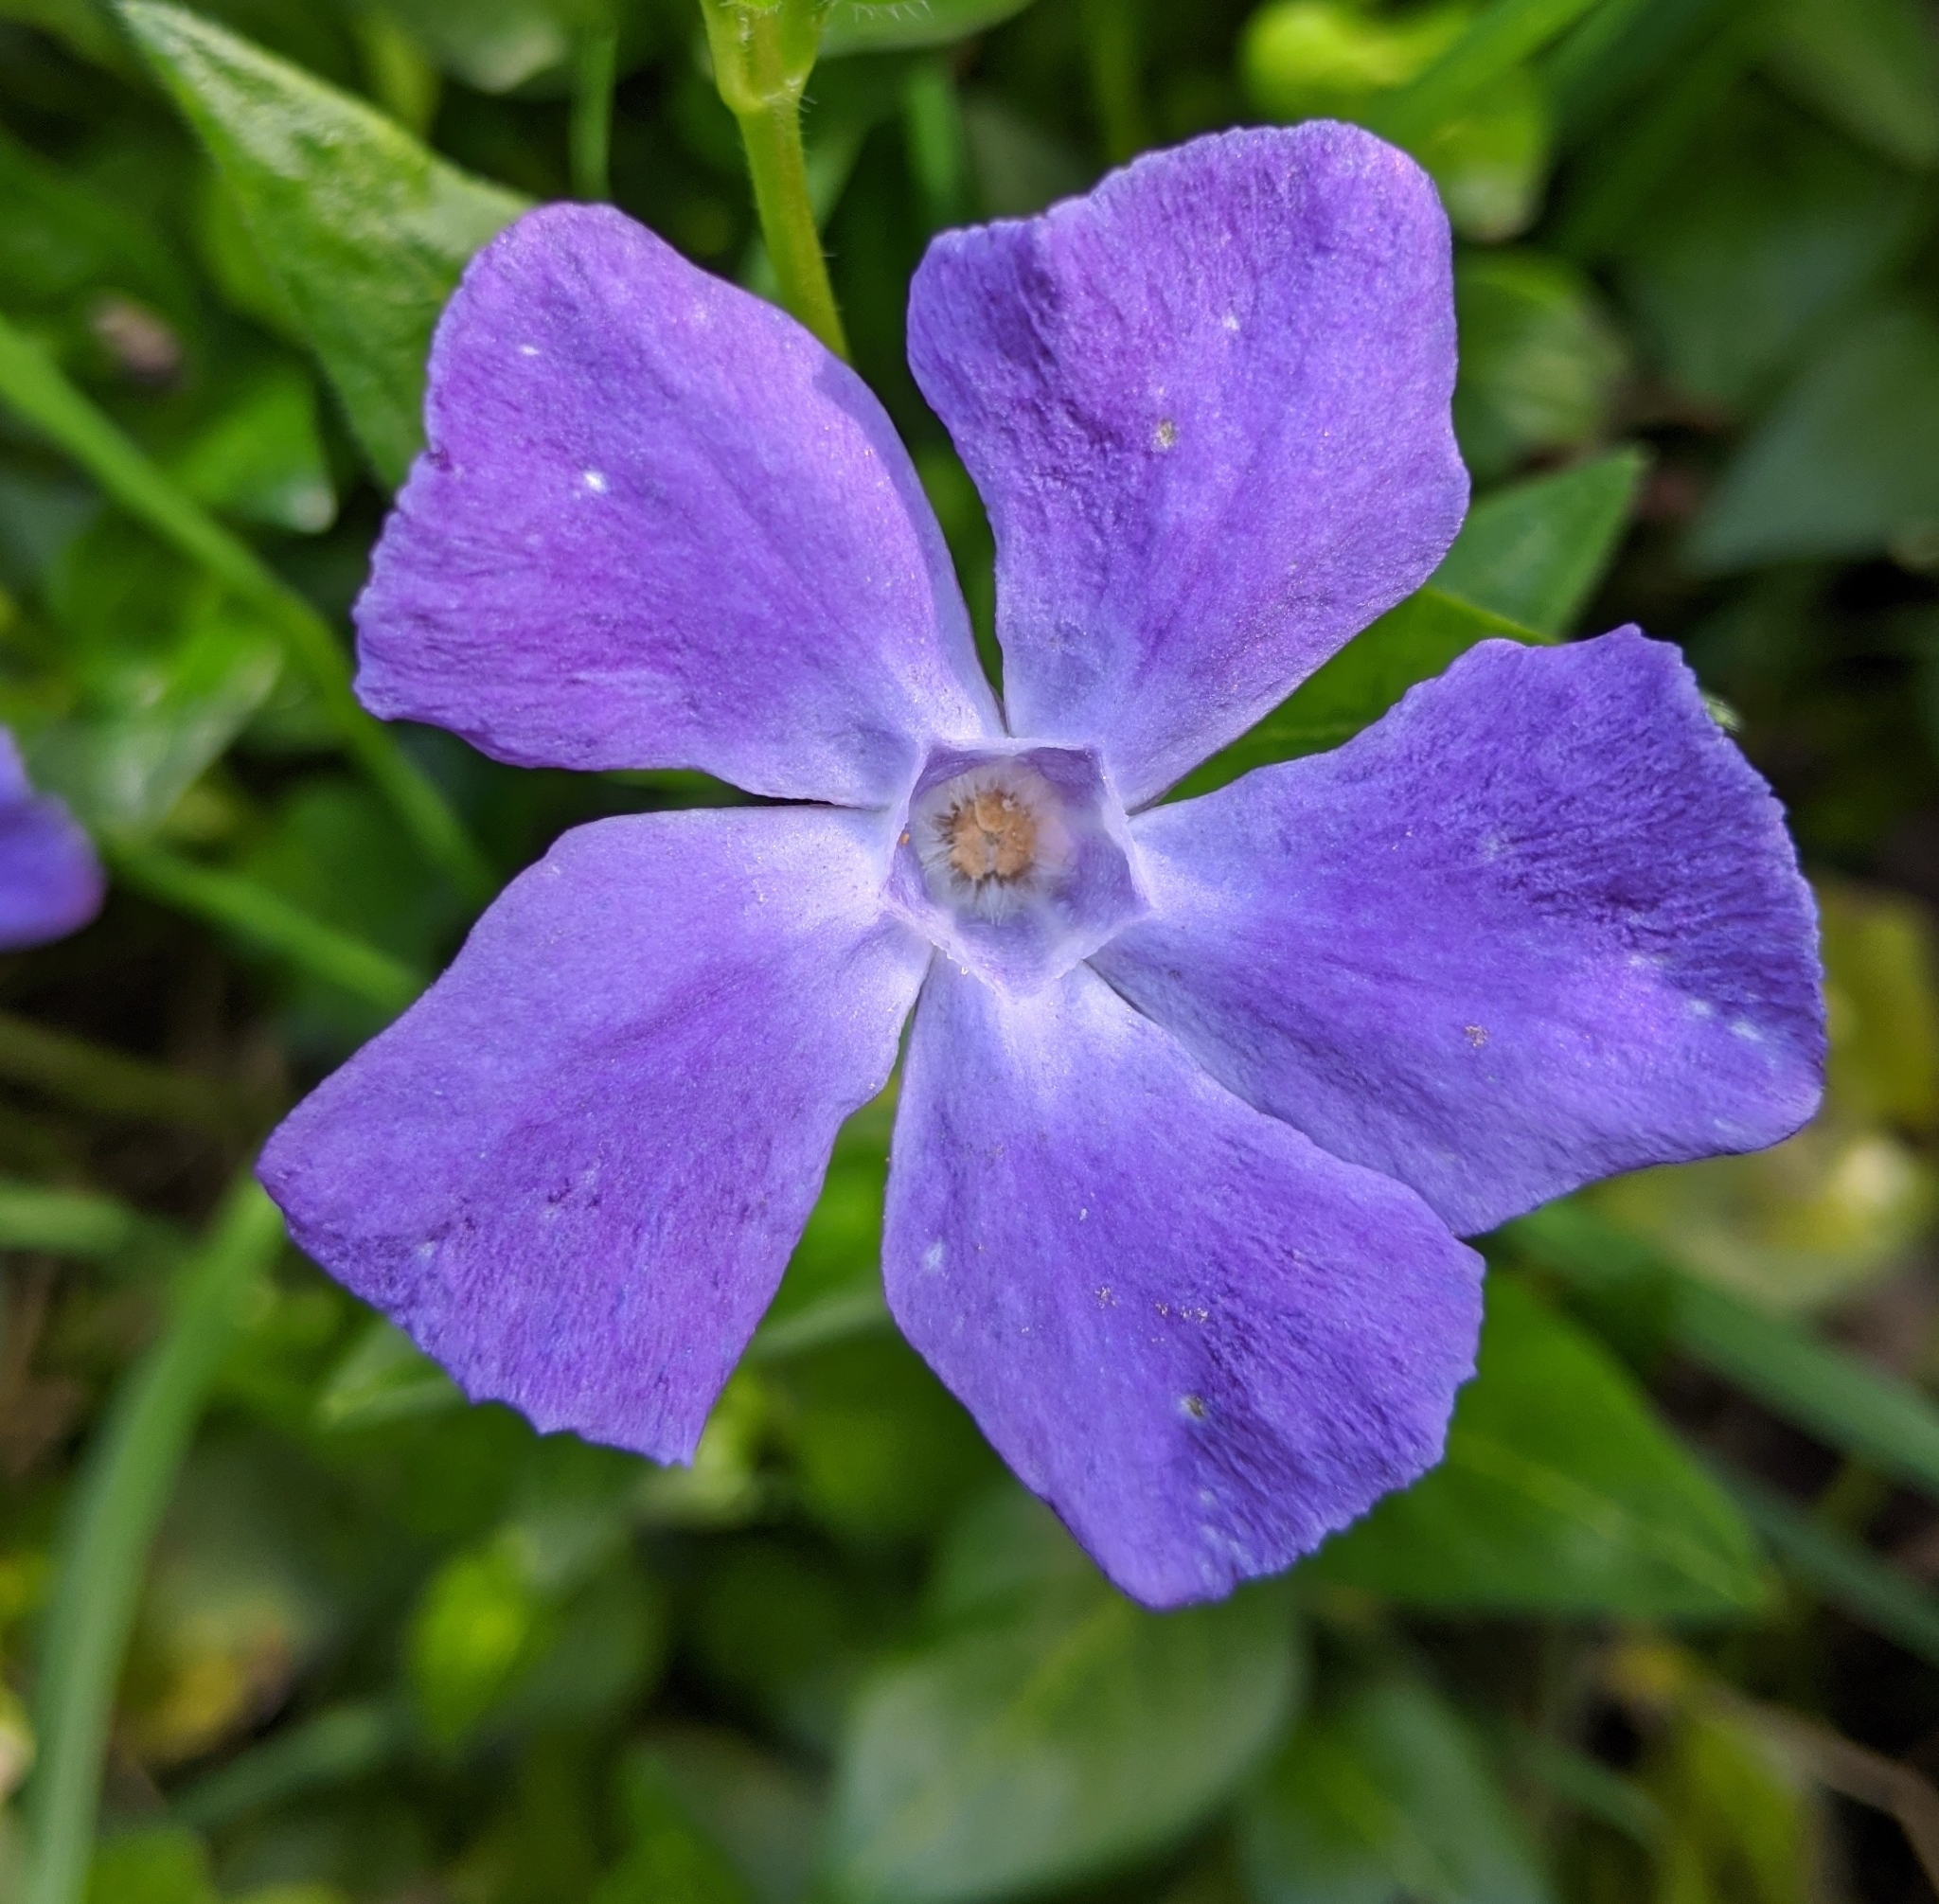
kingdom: Plantae
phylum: Tracheophyta
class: Magnoliopsida
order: Gentianales
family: Apocynaceae
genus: Vinca
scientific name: Vinca major
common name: Greater periwinkle
